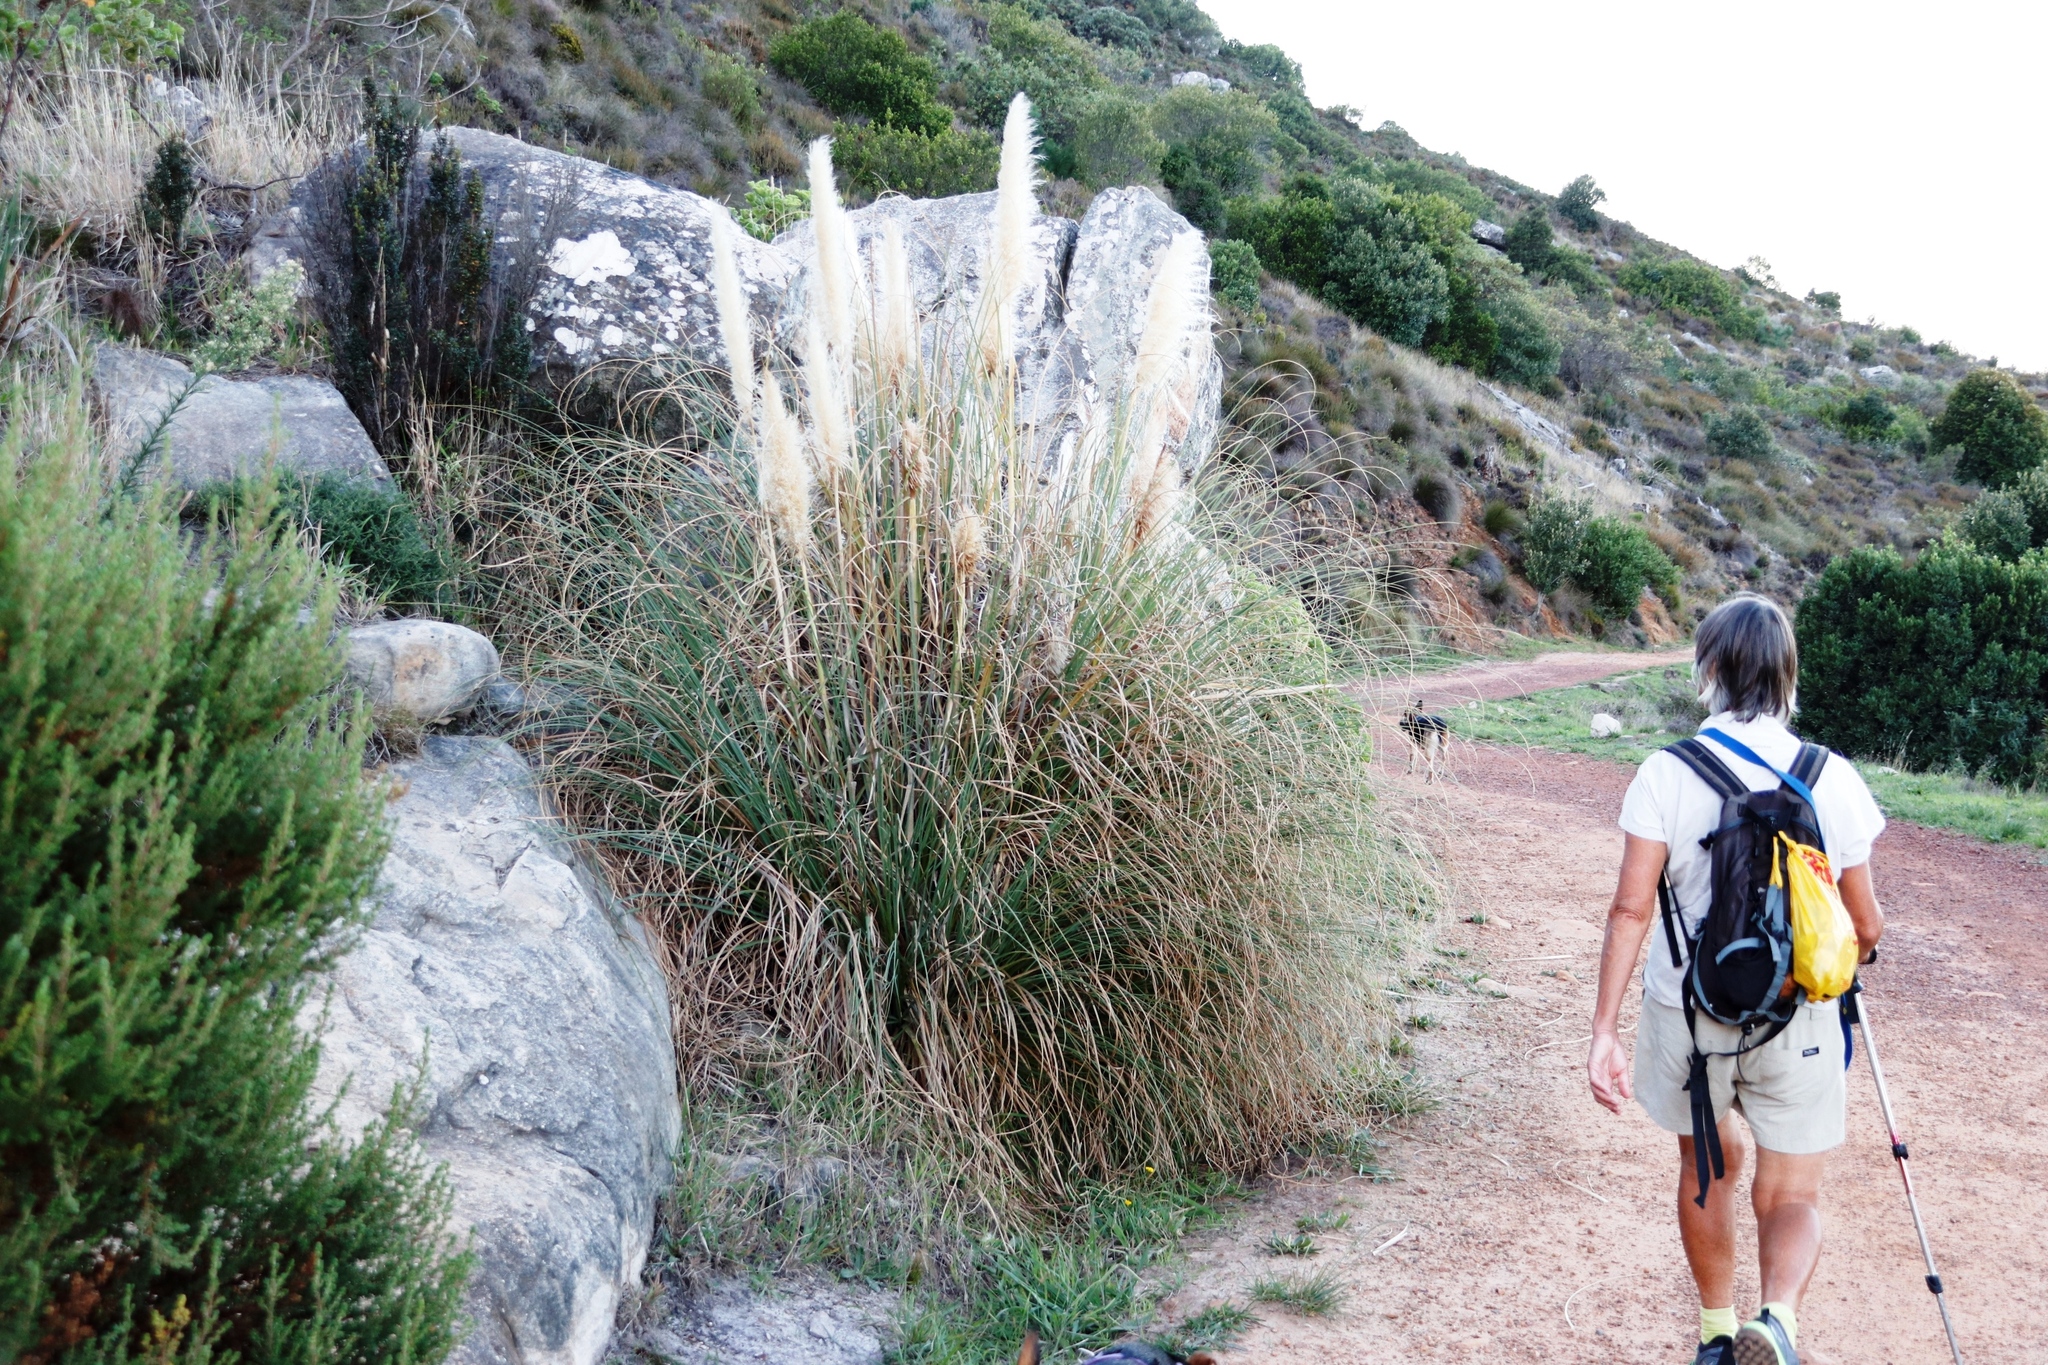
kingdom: Plantae
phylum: Tracheophyta
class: Liliopsida
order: Poales
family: Poaceae
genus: Cortaderia
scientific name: Cortaderia selloana
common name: Uruguayan pampas grass
